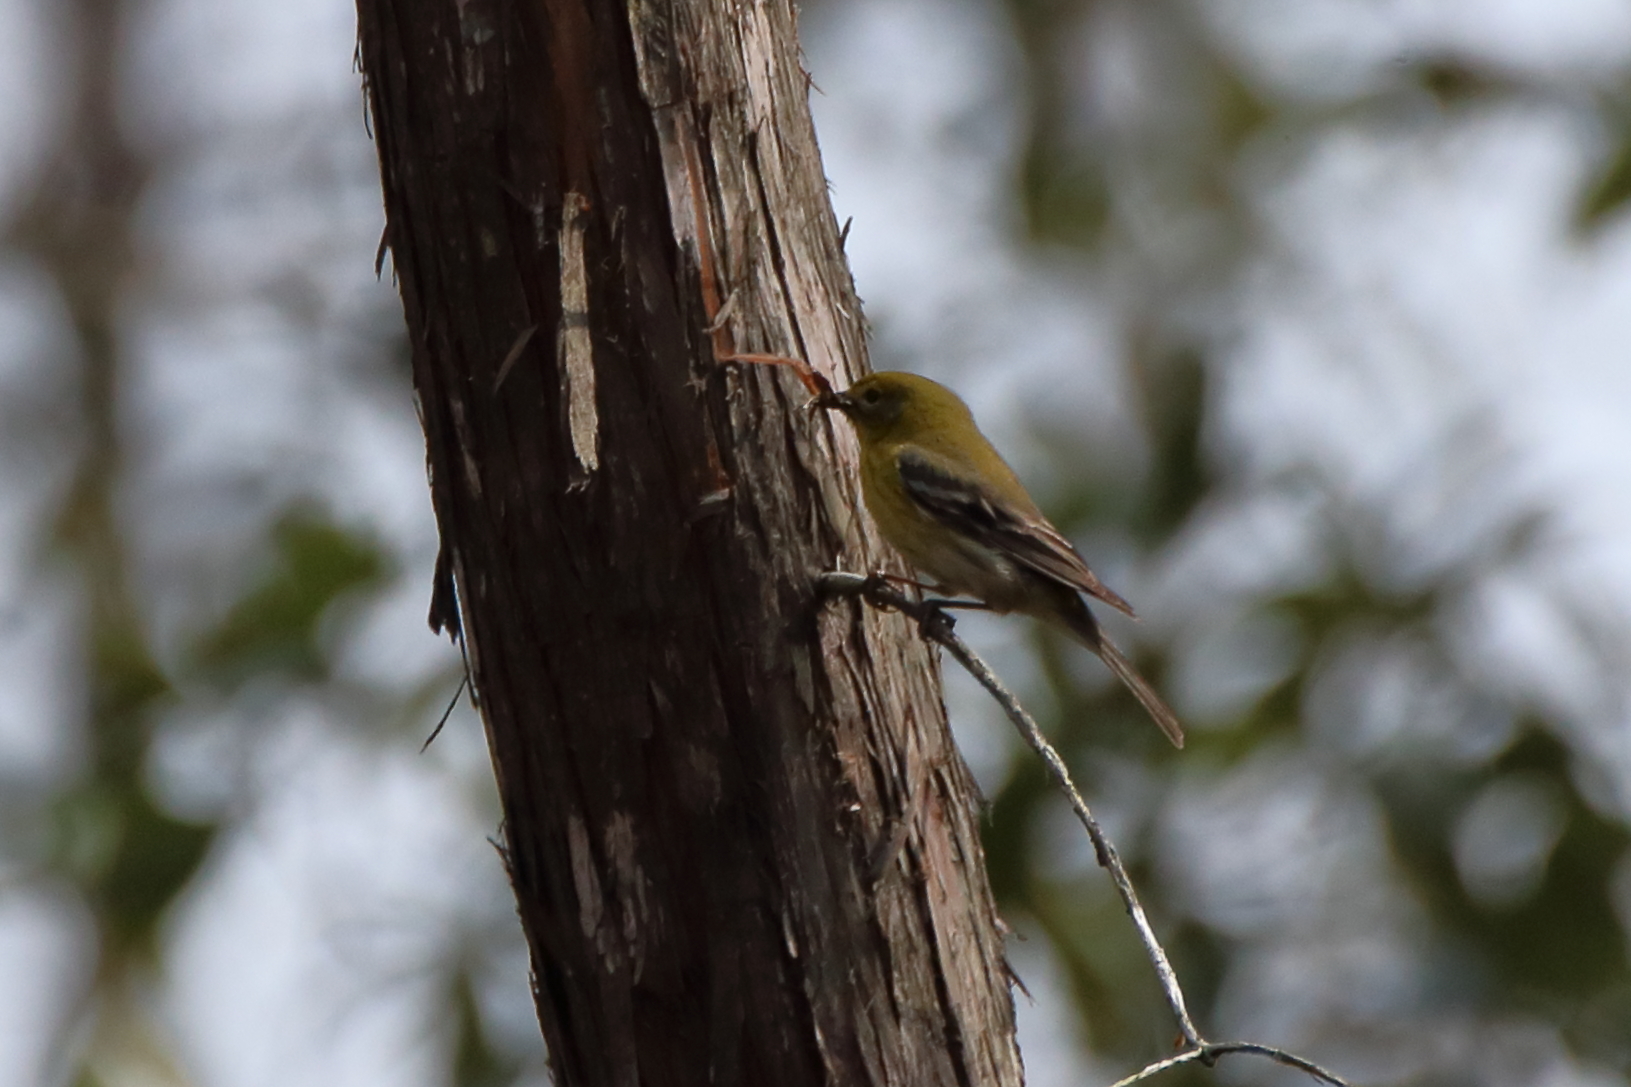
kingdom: Animalia
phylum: Chordata
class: Aves
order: Passeriformes
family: Parulidae
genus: Setophaga
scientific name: Setophaga pinus
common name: Pine warbler
